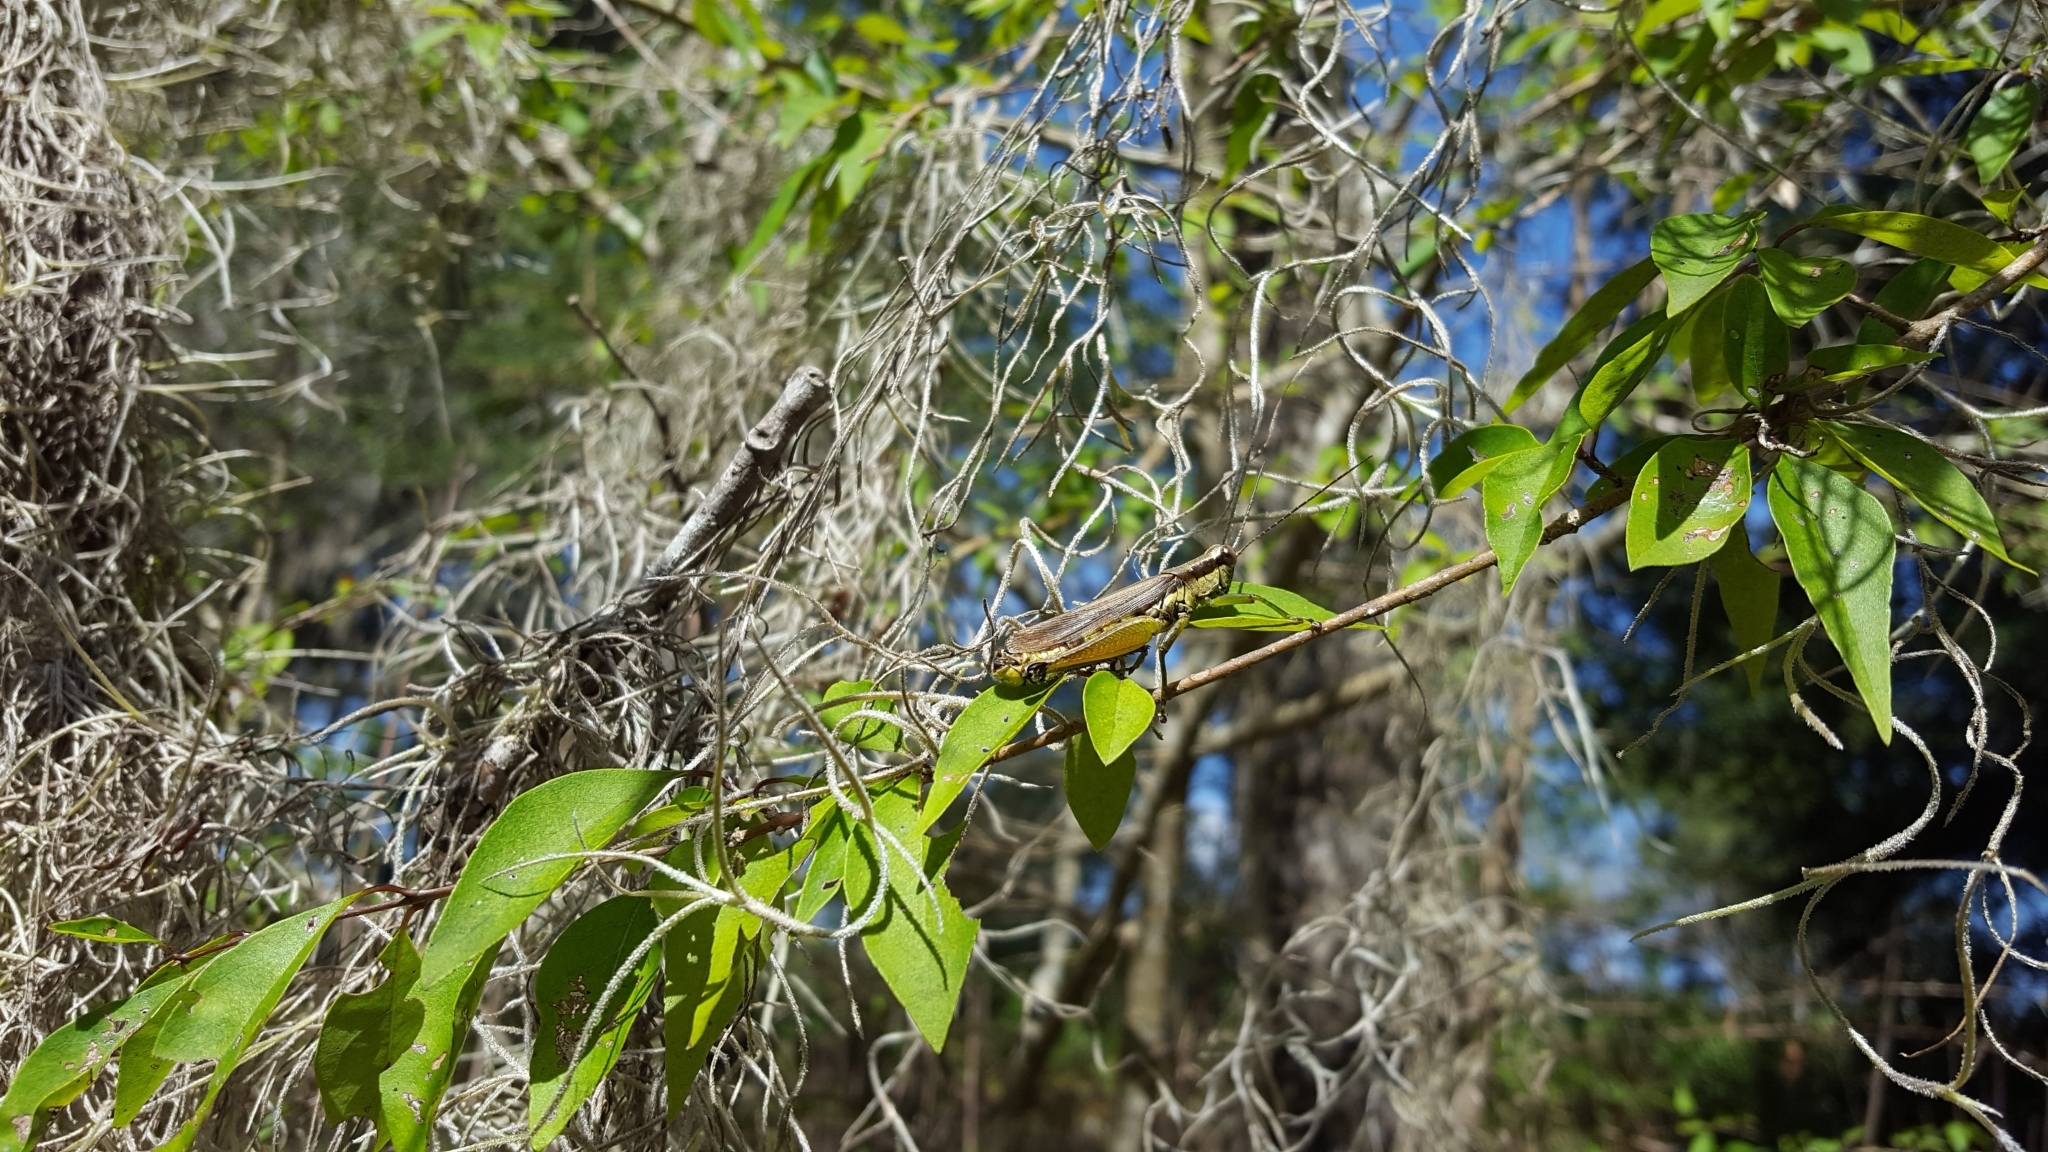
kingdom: Animalia
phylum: Arthropoda
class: Insecta
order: Orthoptera
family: Acrididae
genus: Paroxya
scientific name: Paroxya clavuligera
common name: Olive-green swamp grasshopper
